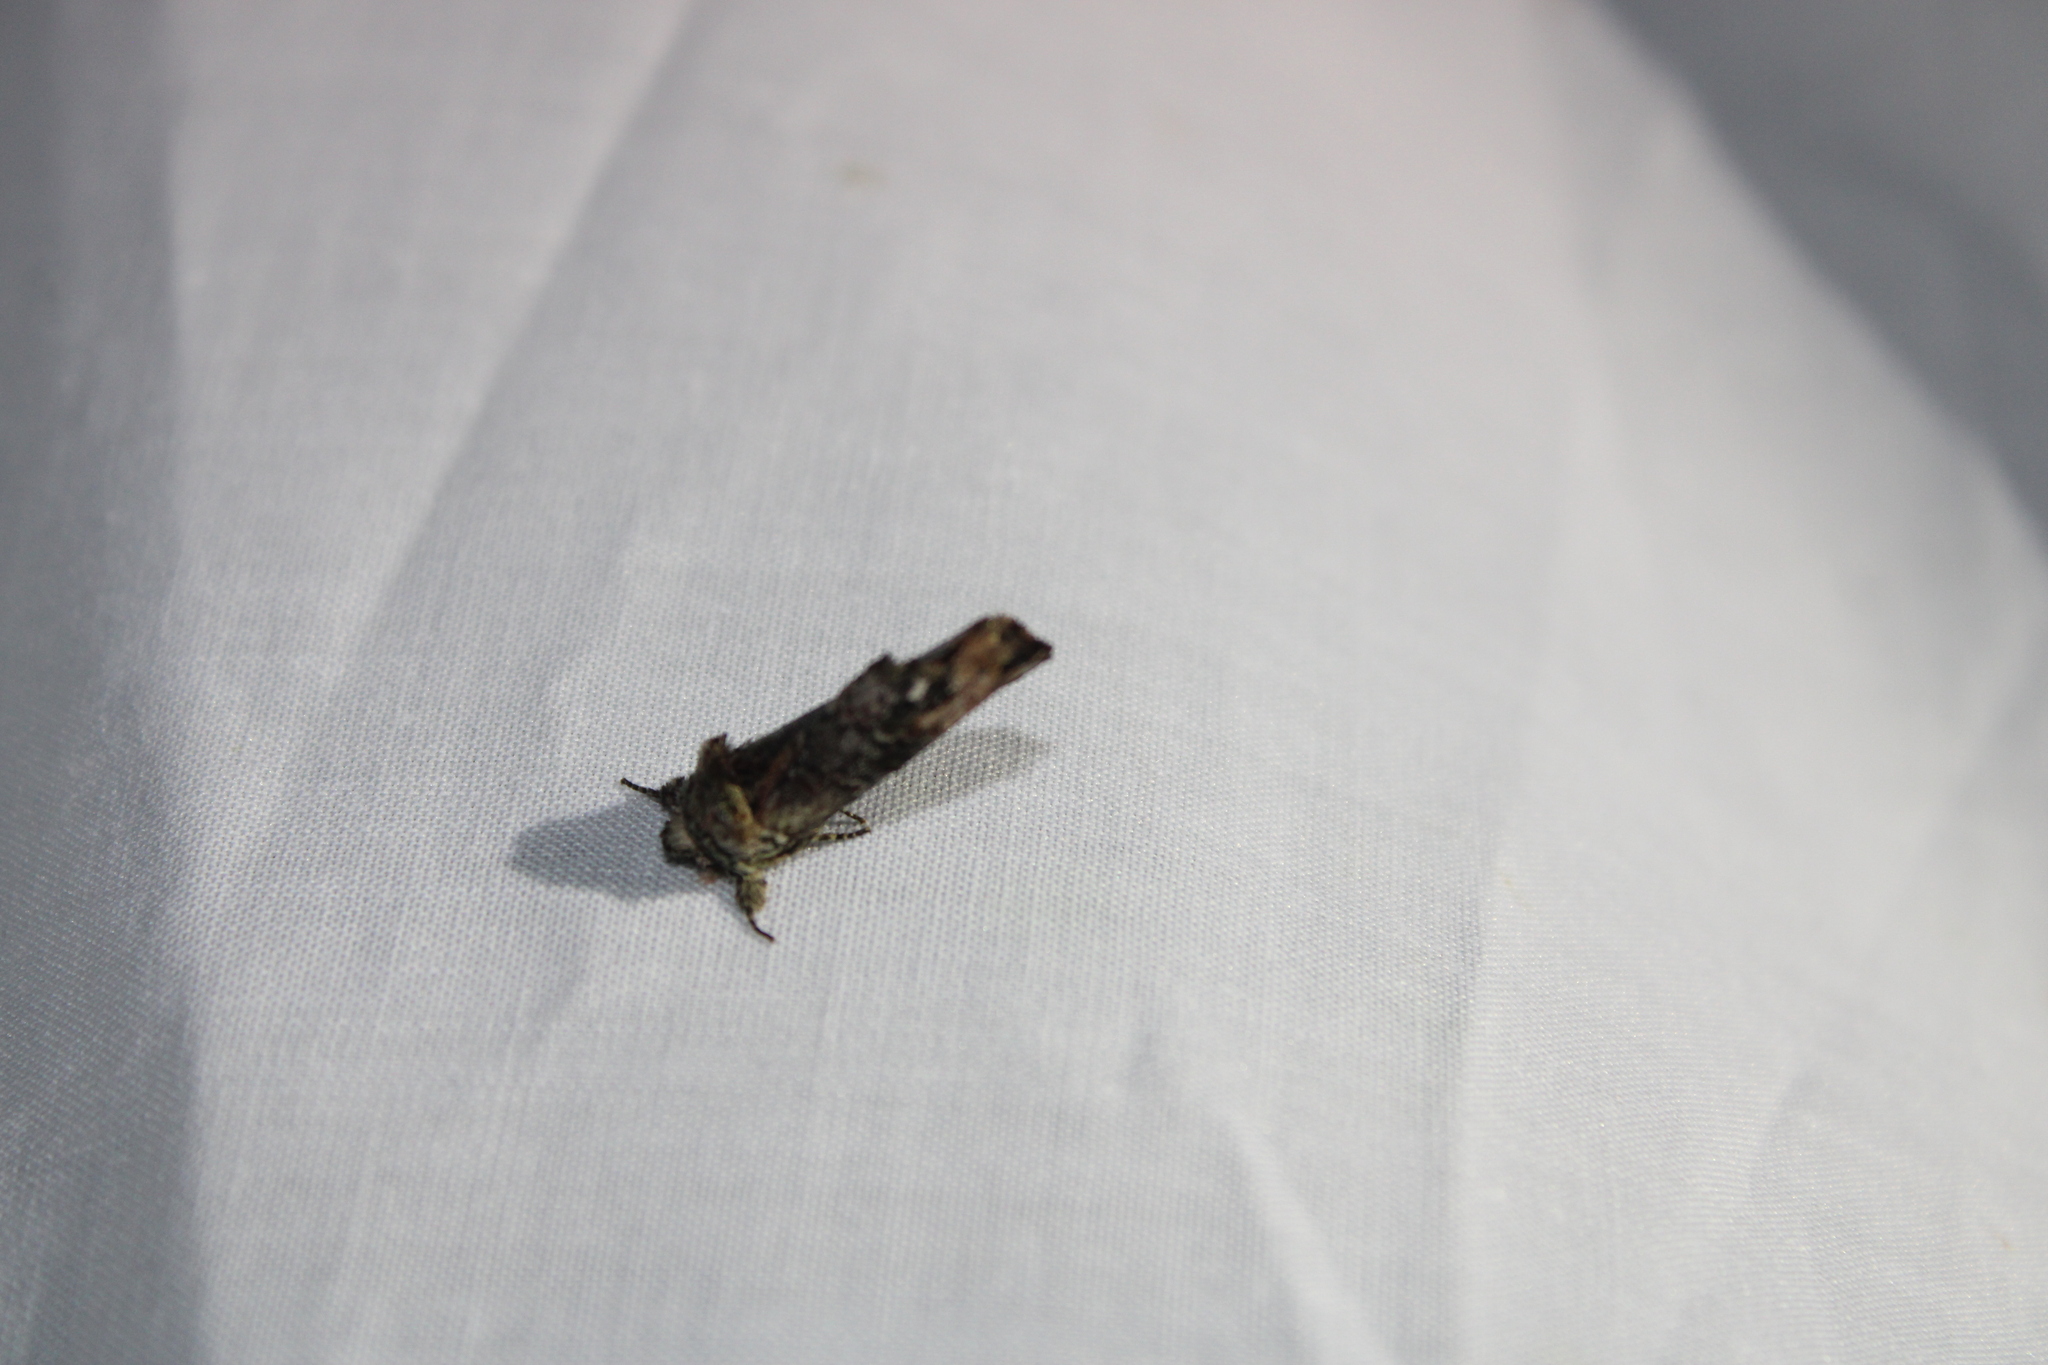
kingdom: Animalia
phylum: Arthropoda
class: Insecta
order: Lepidoptera
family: Notodontidae
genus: Schizura
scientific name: Schizura
